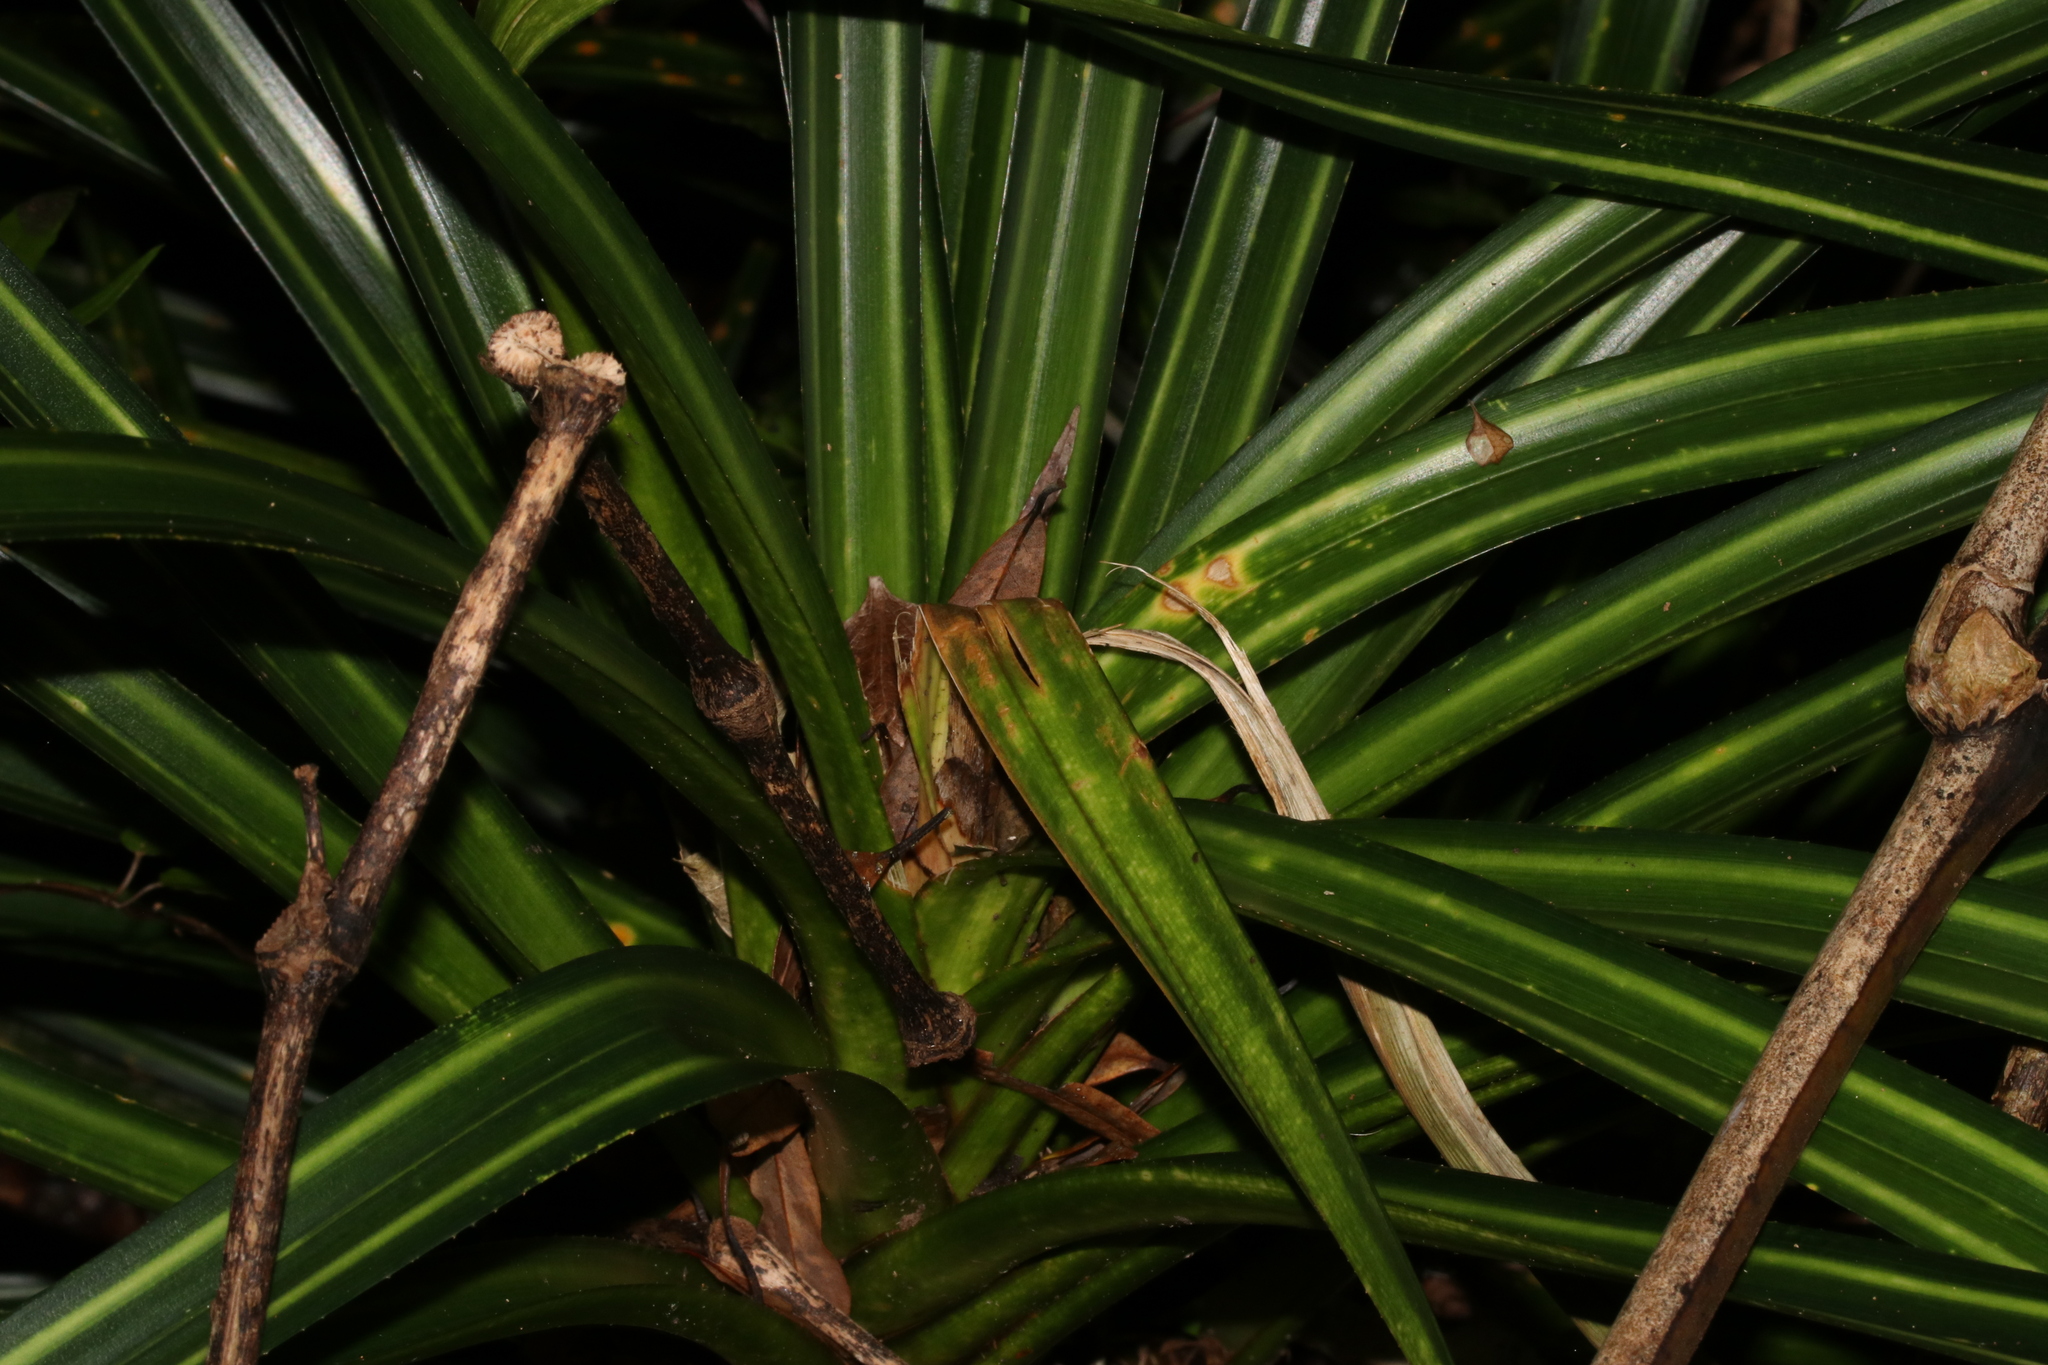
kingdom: Plantae
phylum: Tracheophyta
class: Liliopsida
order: Pandanales
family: Pandanaceae
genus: Freycinetia
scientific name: Freycinetia banksii
